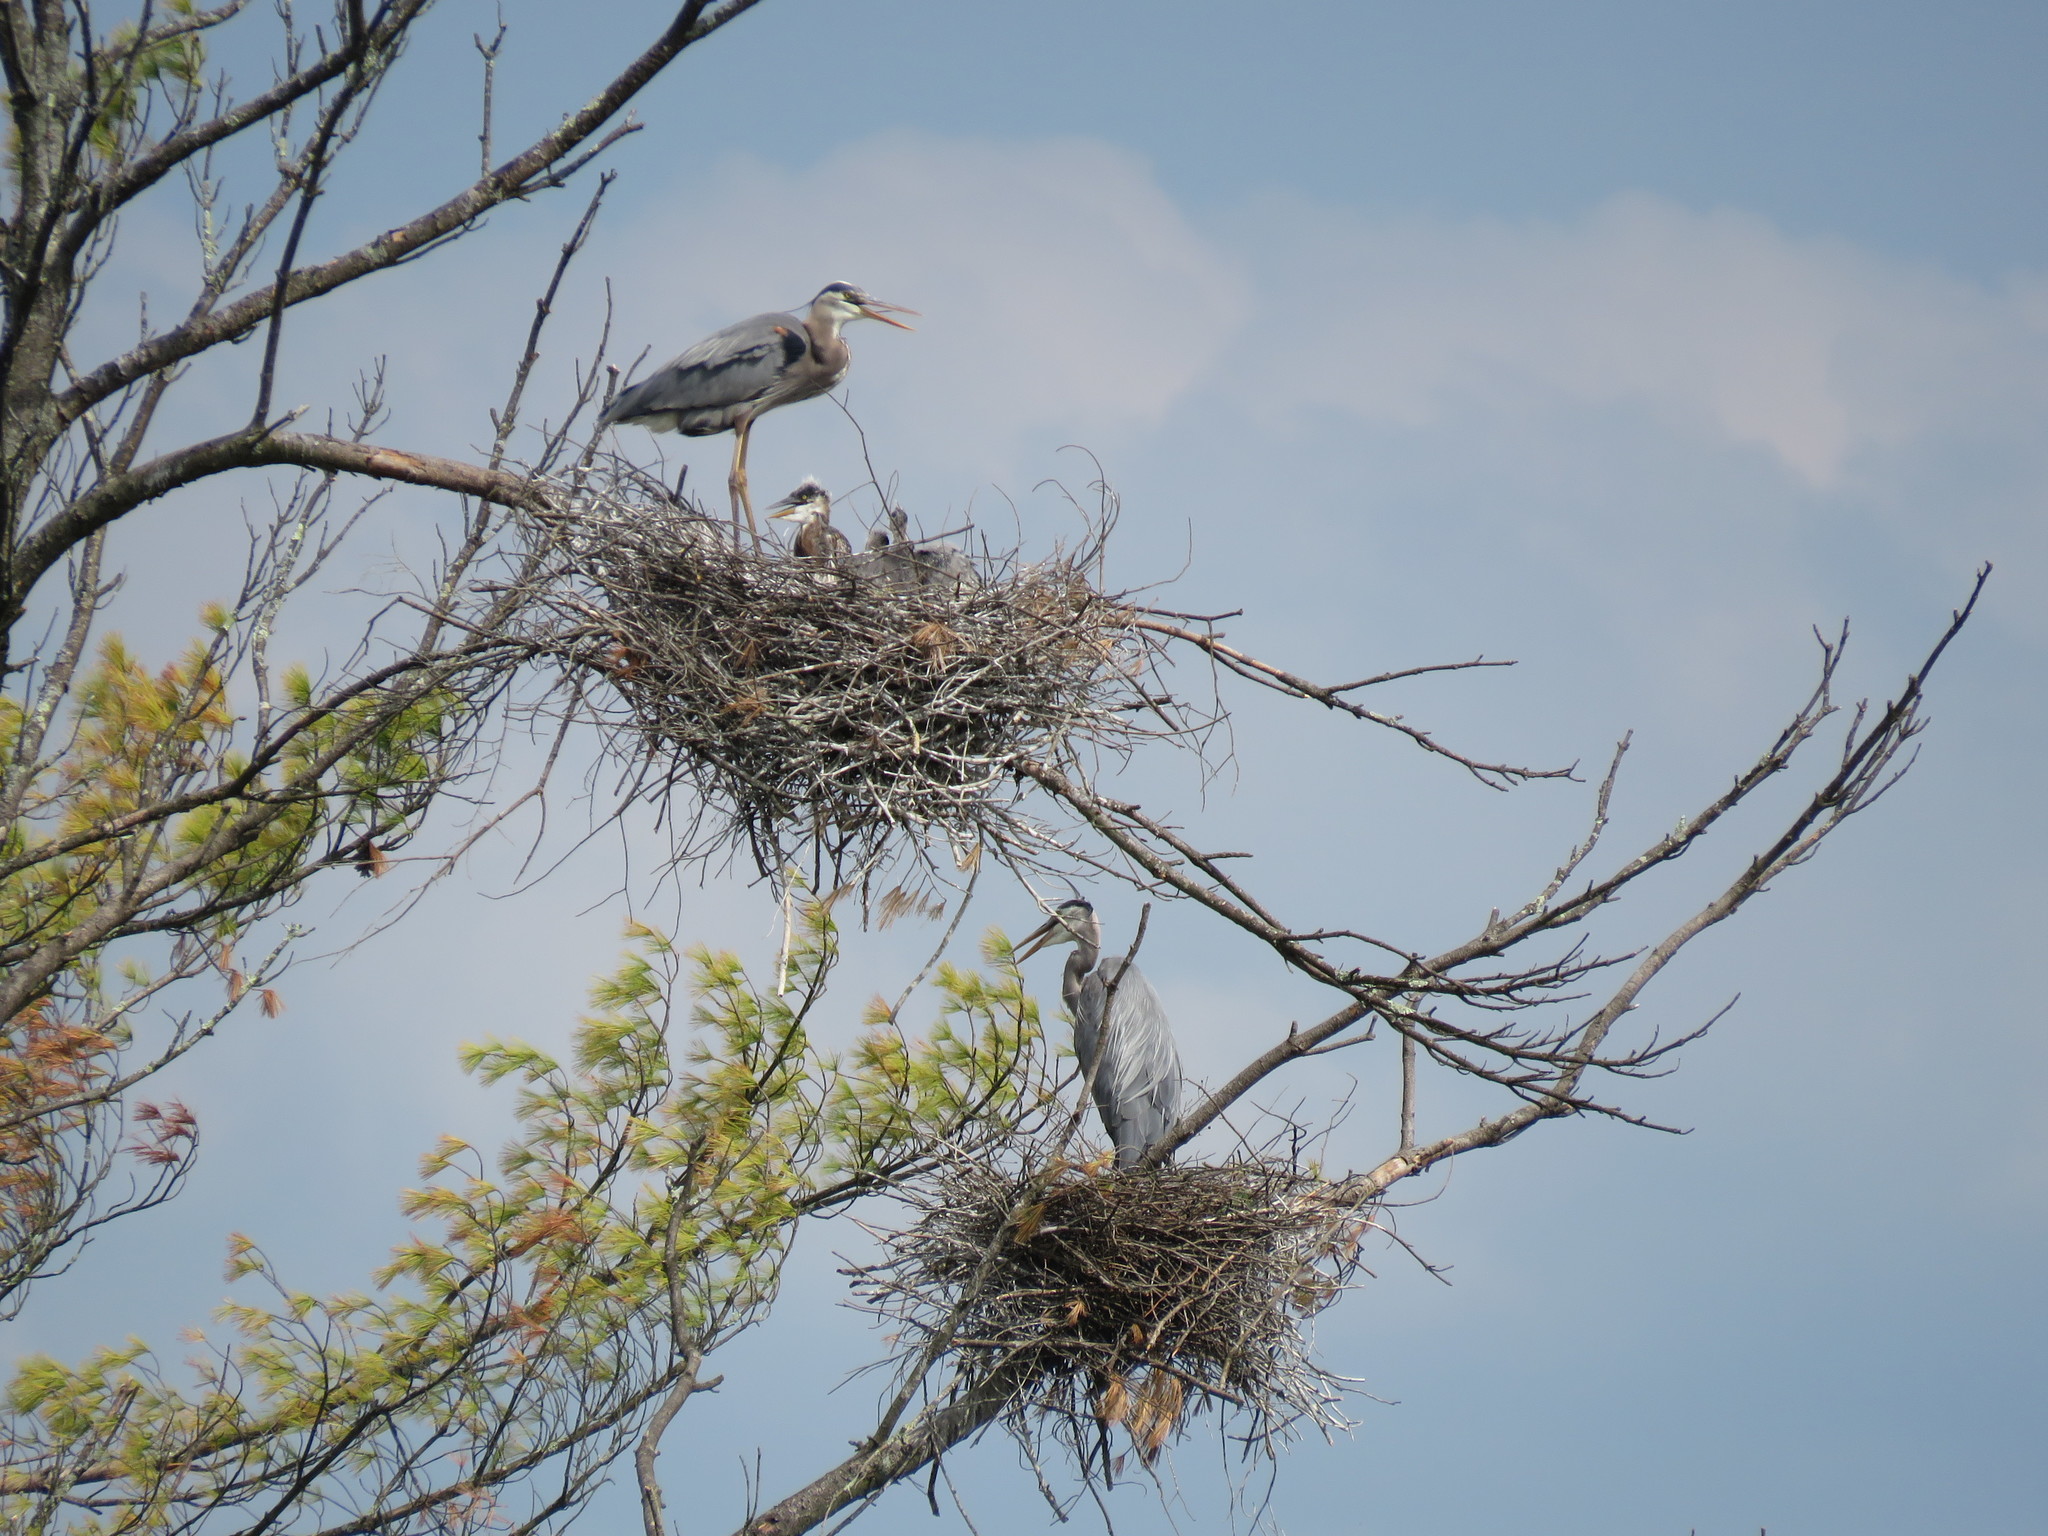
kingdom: Animalia
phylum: Chordata
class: Aves
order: Pelecaniformes
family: Ardeidae
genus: Ardea
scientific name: Ardea herodias
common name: Great blue heron
